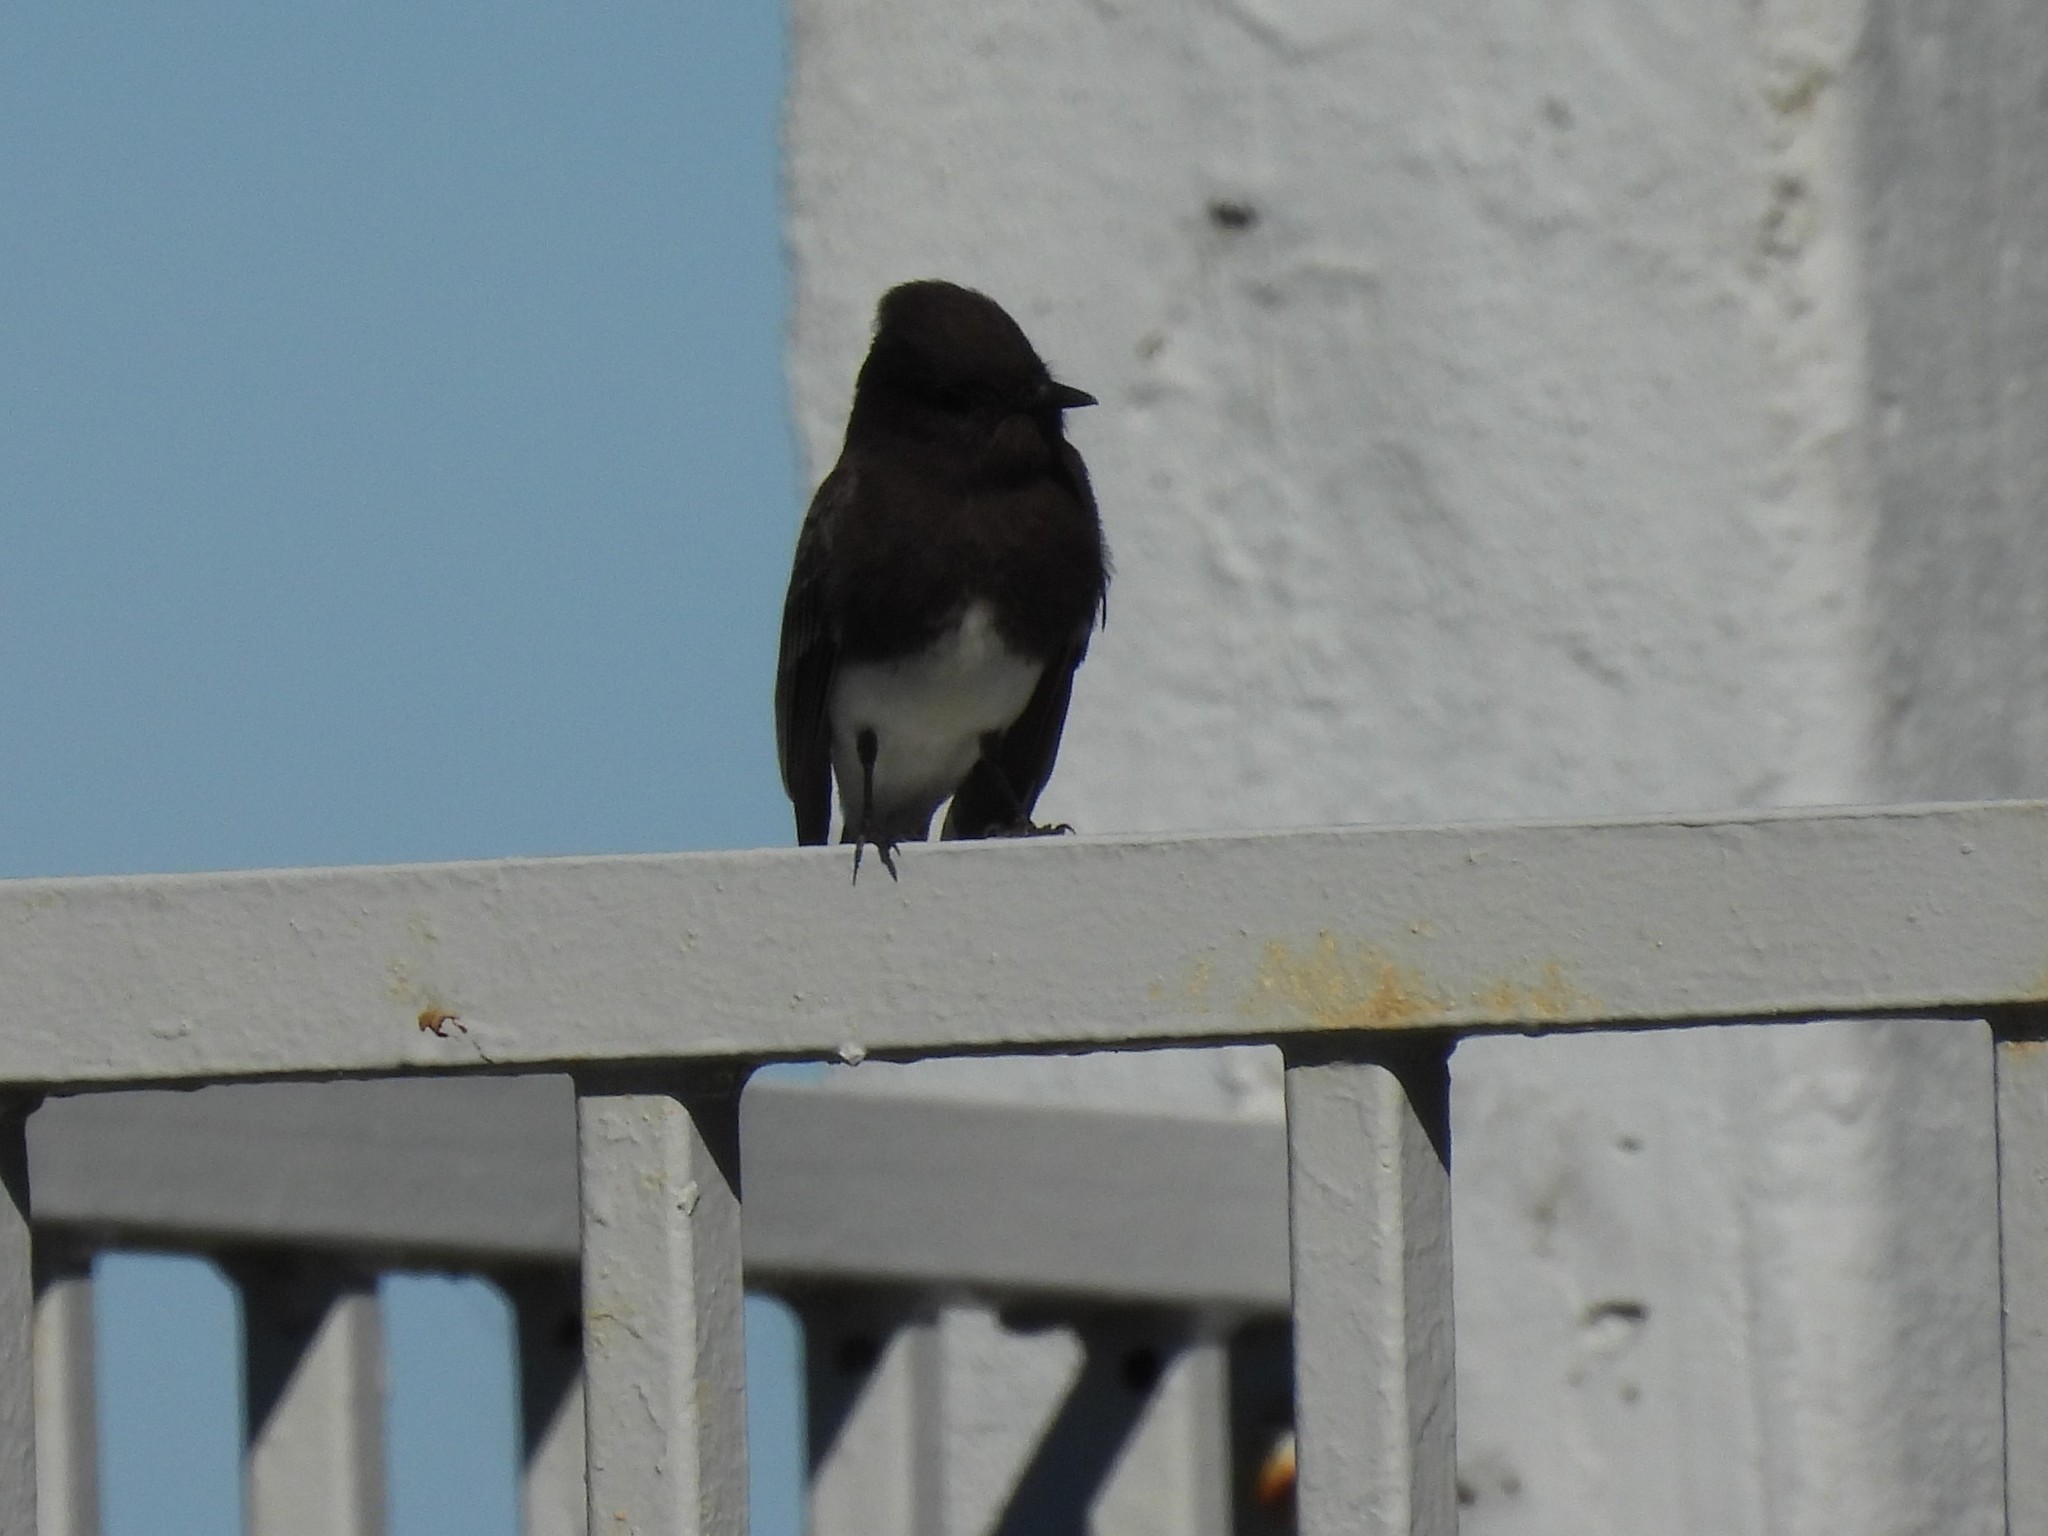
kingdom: Animalia
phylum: Chordata
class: Aves
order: Passeriformes
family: Tyrannidae
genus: Sayornis
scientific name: Sayornis nigricans
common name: Black phoebe
